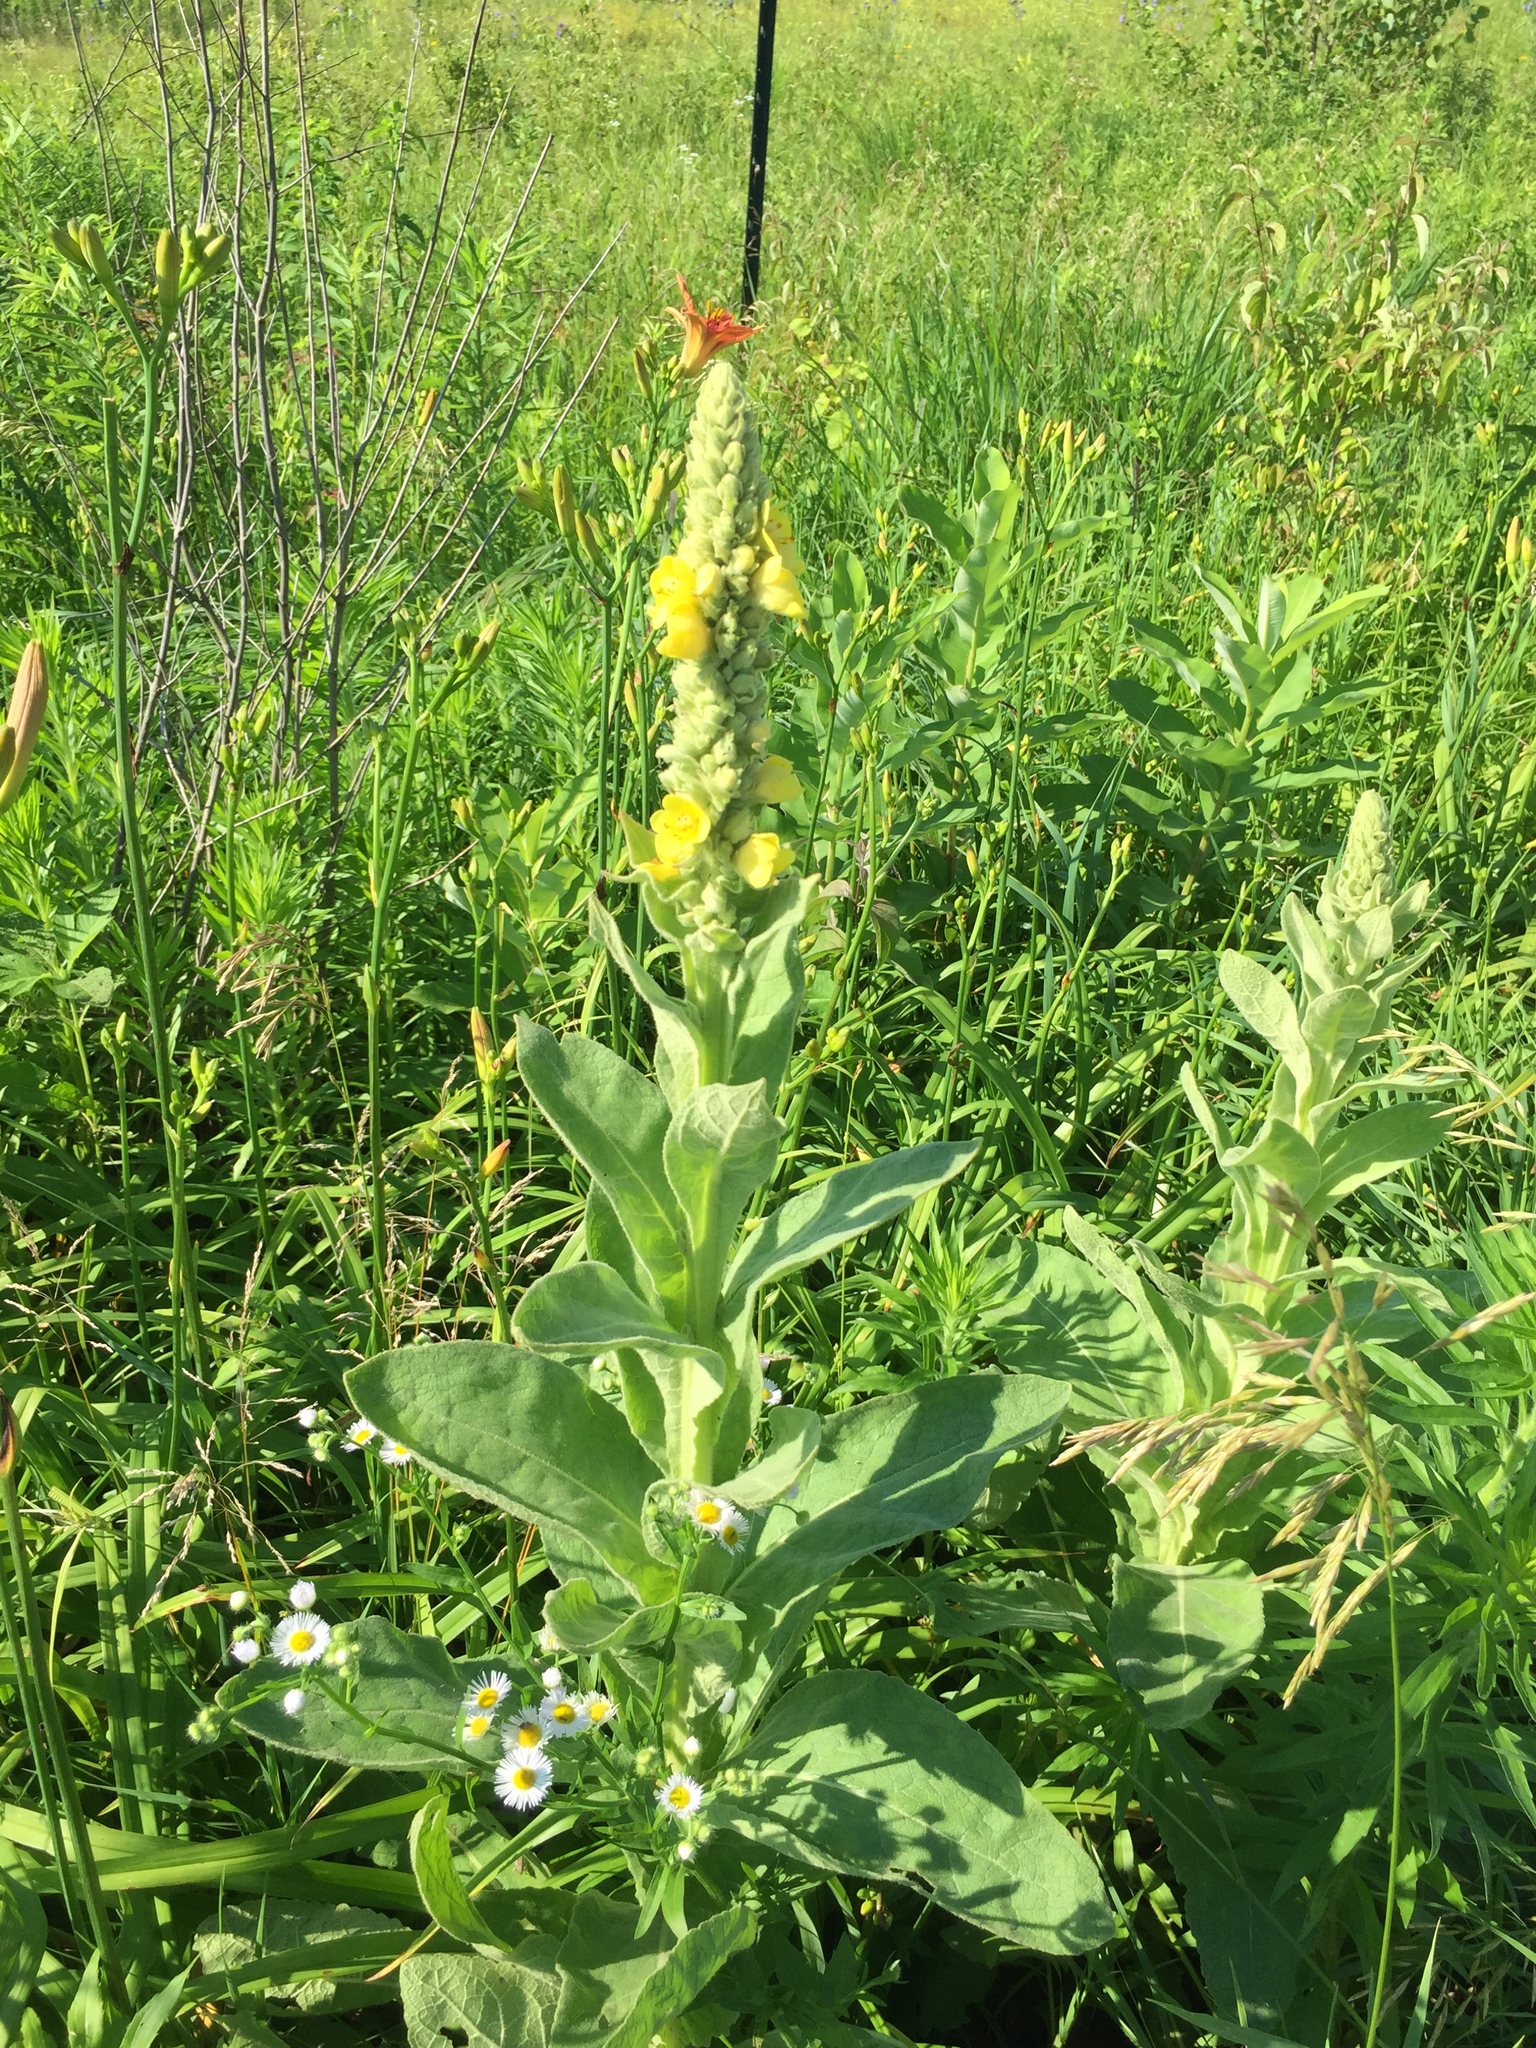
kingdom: Plantae
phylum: Tracheophyta
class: Magnoliopsida
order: Lamiales
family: Scrophulariaceae
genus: Verbascum
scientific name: Verbascum thapsus
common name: Common mullein
